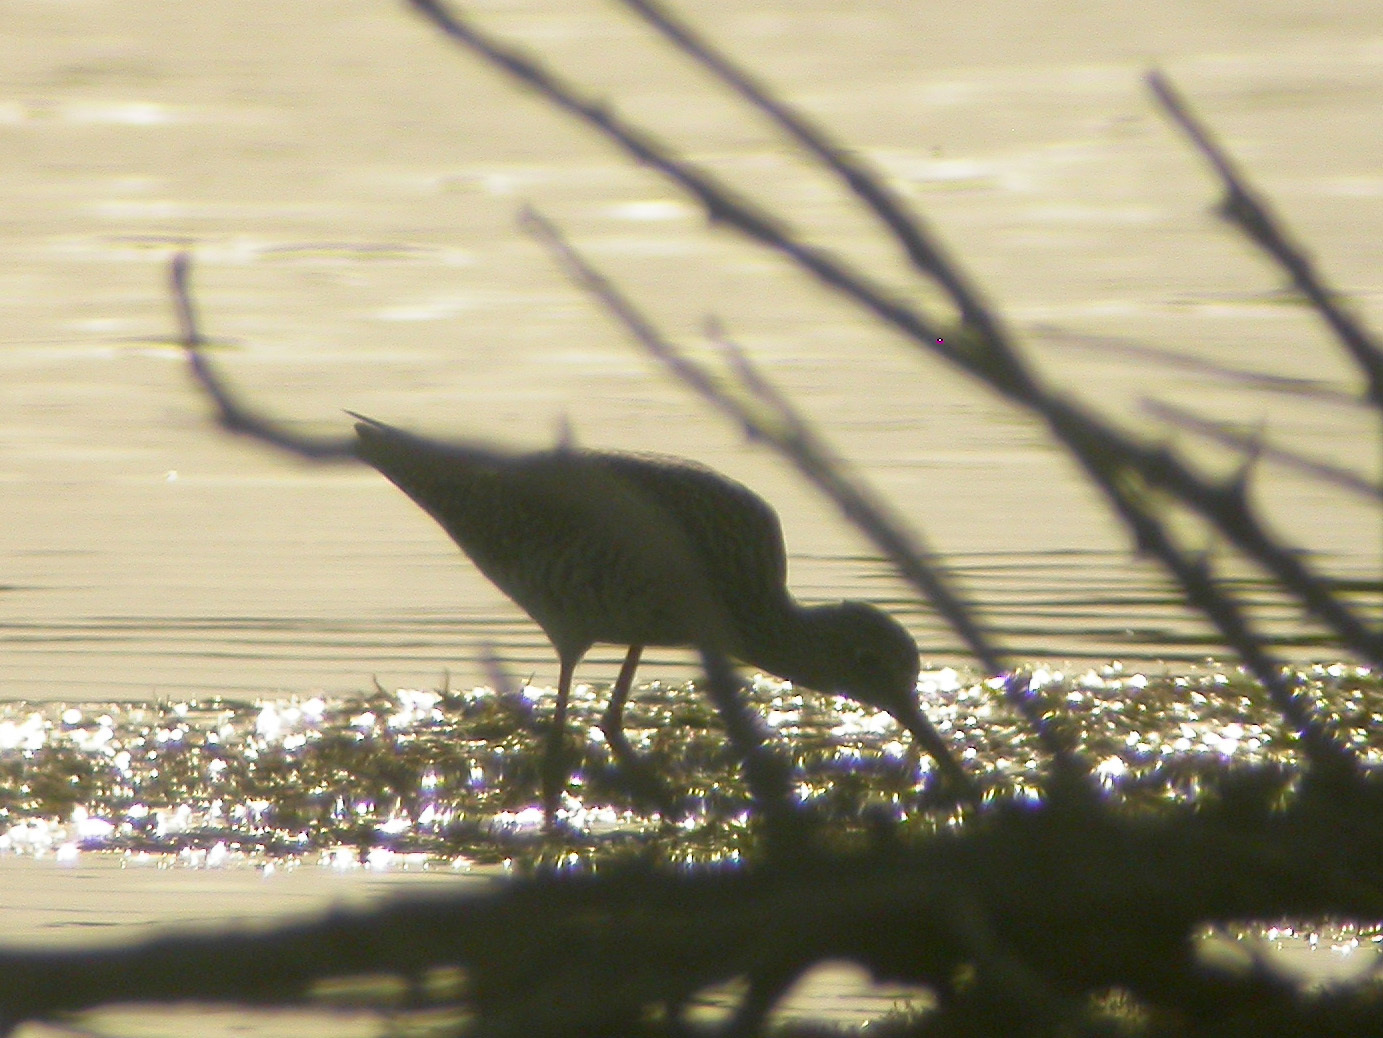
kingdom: Animalia
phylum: Chordata
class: Aves
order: Charadriiformes
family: Scolopacidae
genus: Tringa
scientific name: Tringa flavipes
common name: Lesser yellowlegs
